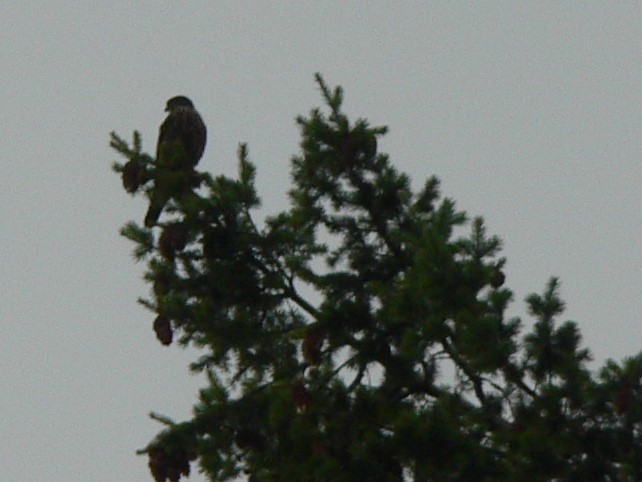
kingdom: Animalia
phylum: Chordata
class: Aves
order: Falconiformes
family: Falconidae
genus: Falco
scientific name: Falco columbarius
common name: Merlin
